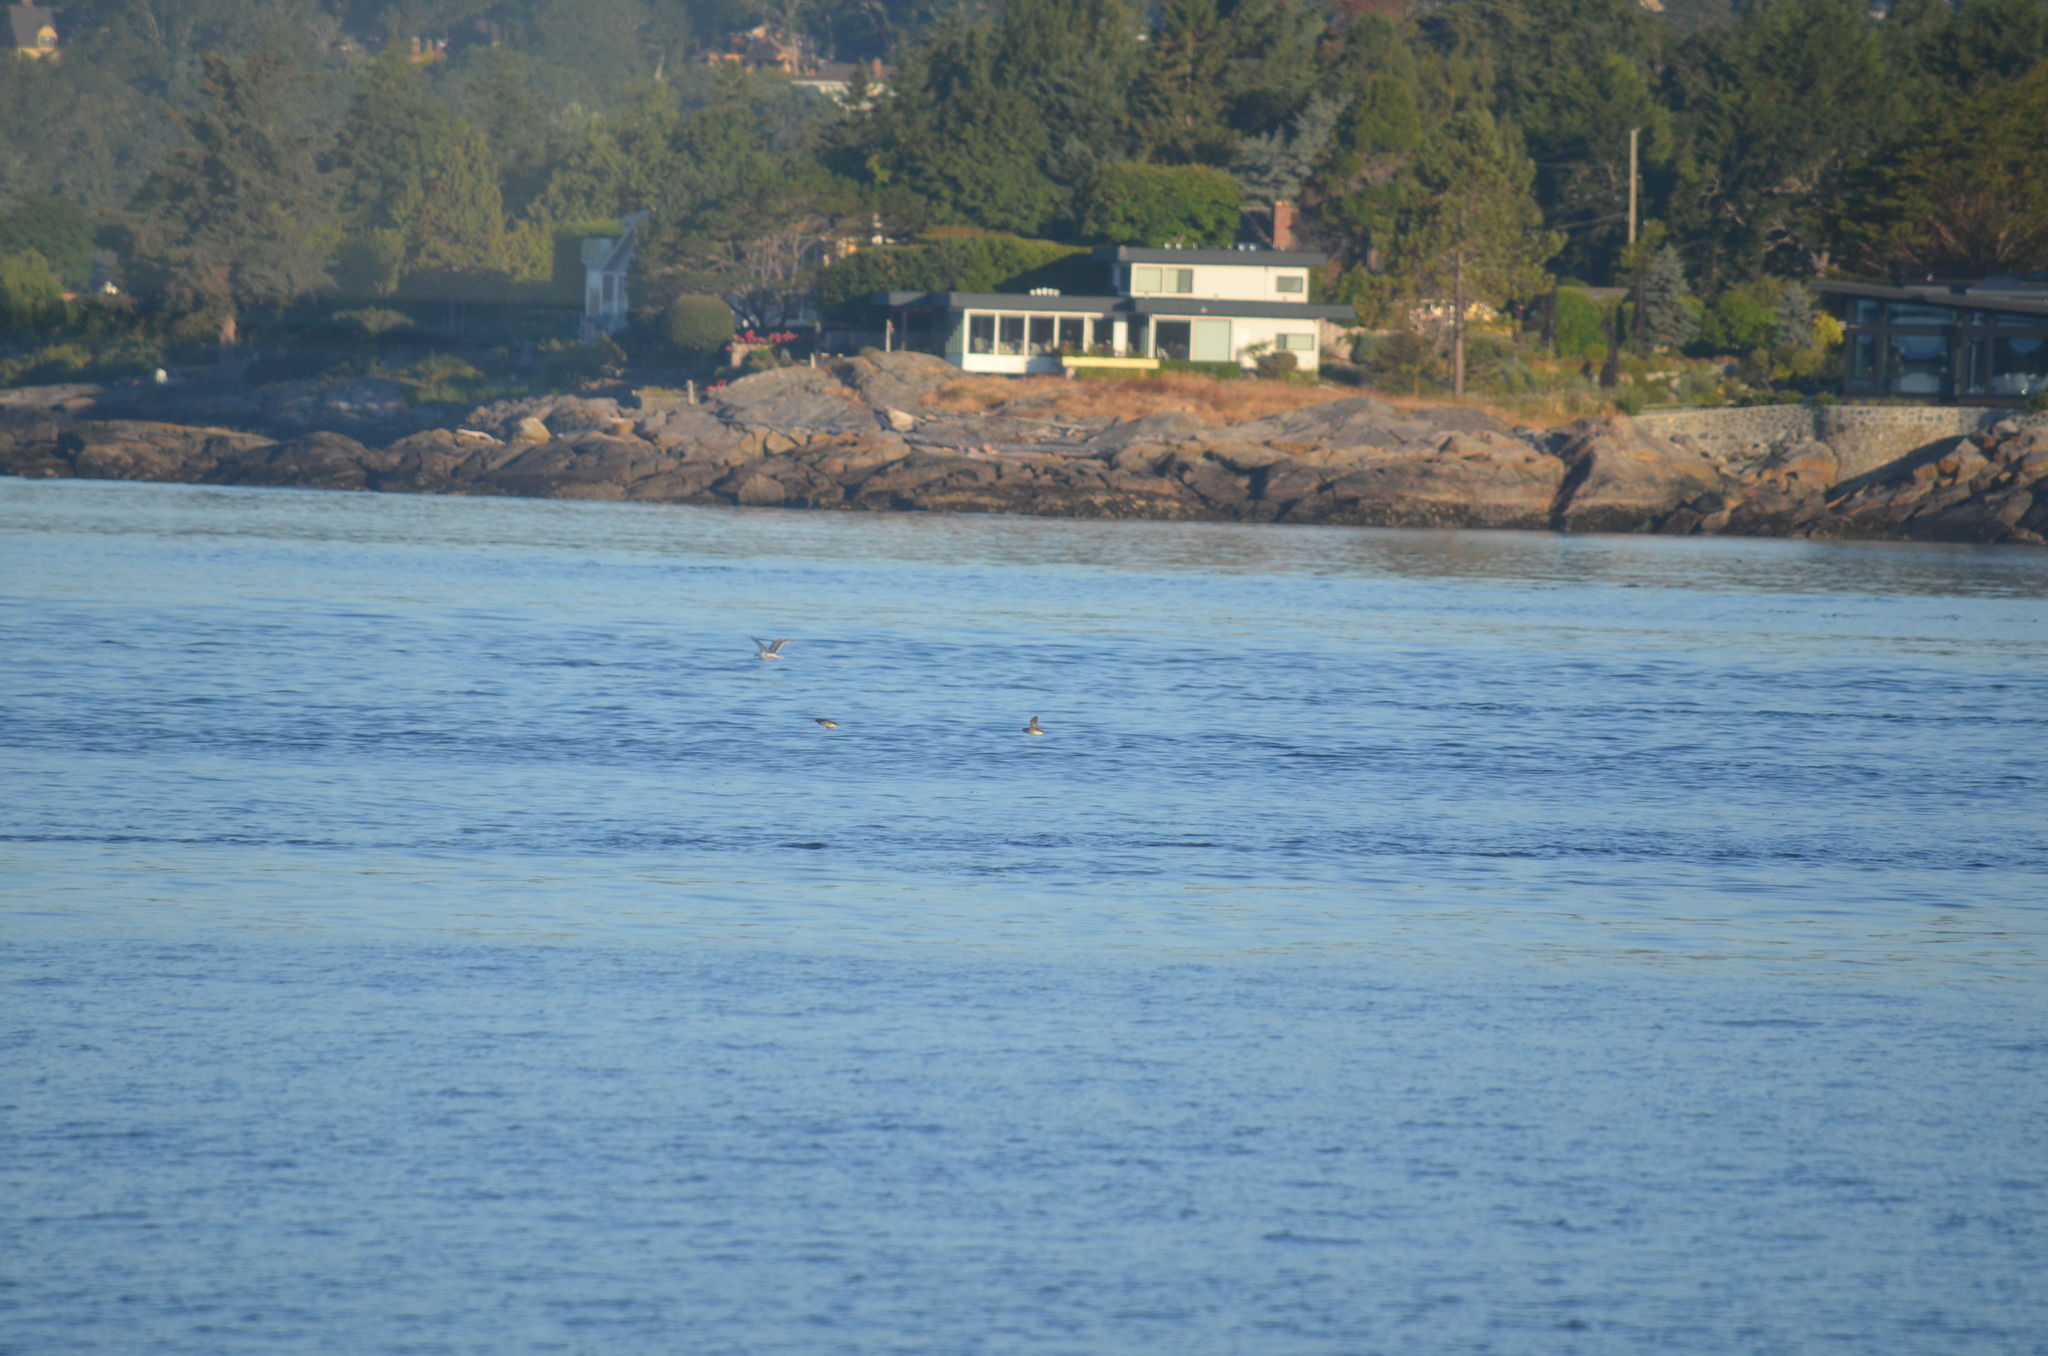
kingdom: Animalia
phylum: Chordata
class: Aves
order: Charadriiformes
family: Alcidae
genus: Cerorhinca
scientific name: Cerorhinca monocerata
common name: Rhinoceros auklet
